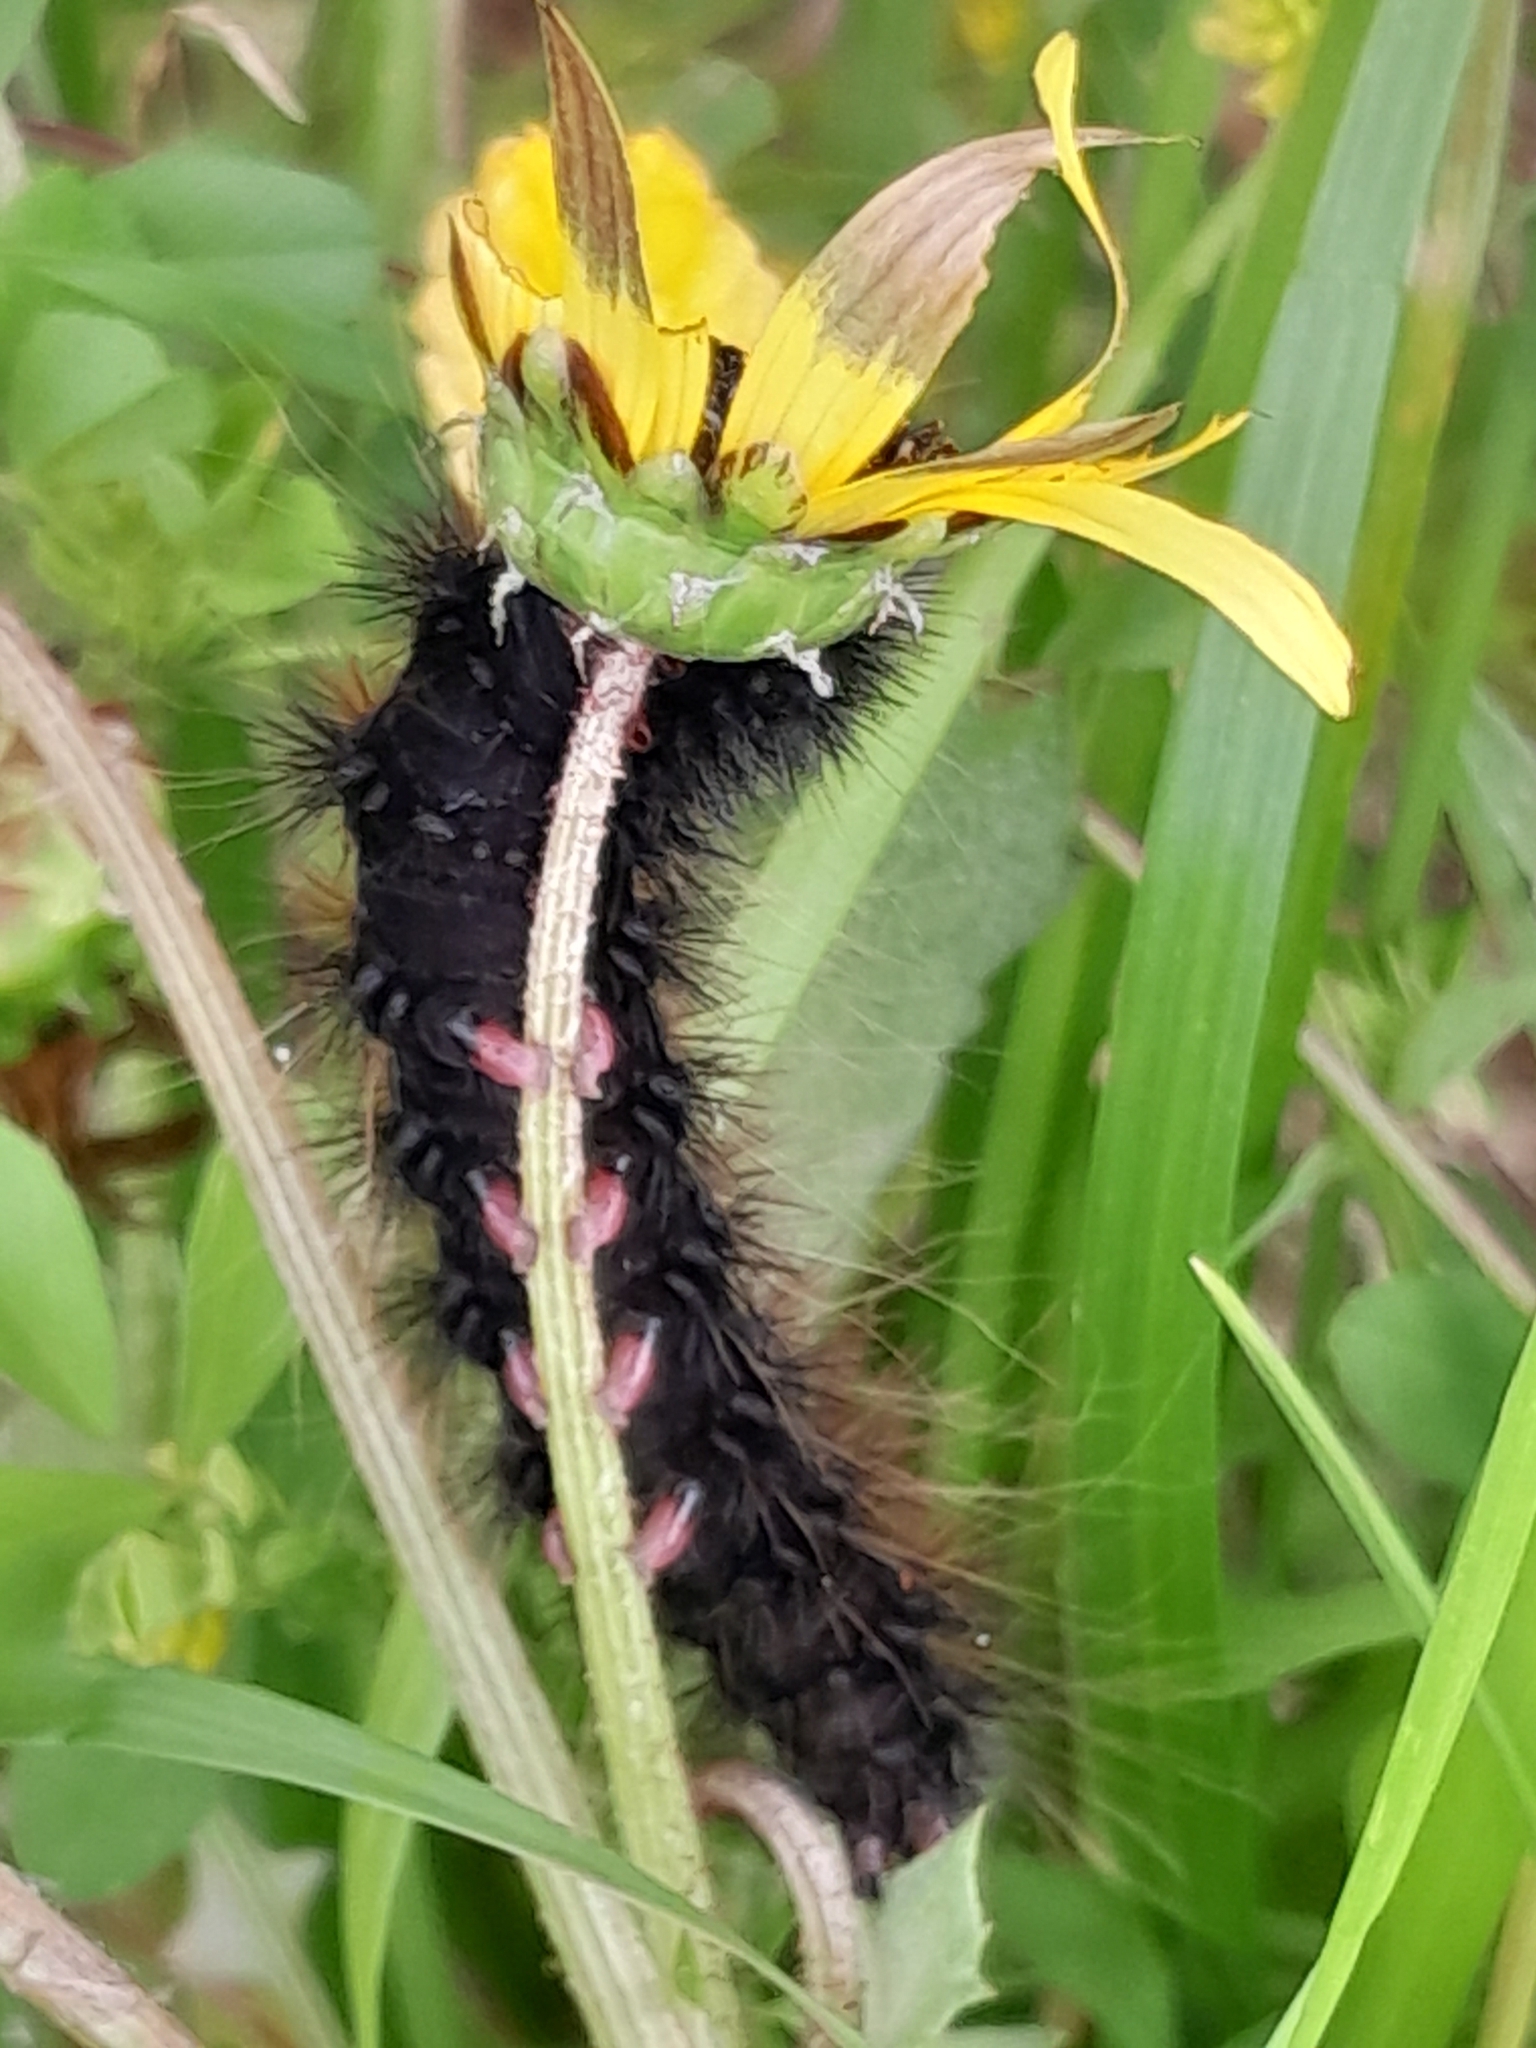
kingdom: Animalia
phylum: Arthropoda
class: Insecta
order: Lepidoptera
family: Erebidae
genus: Rhodogastria
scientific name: Rhodogastria amasis
